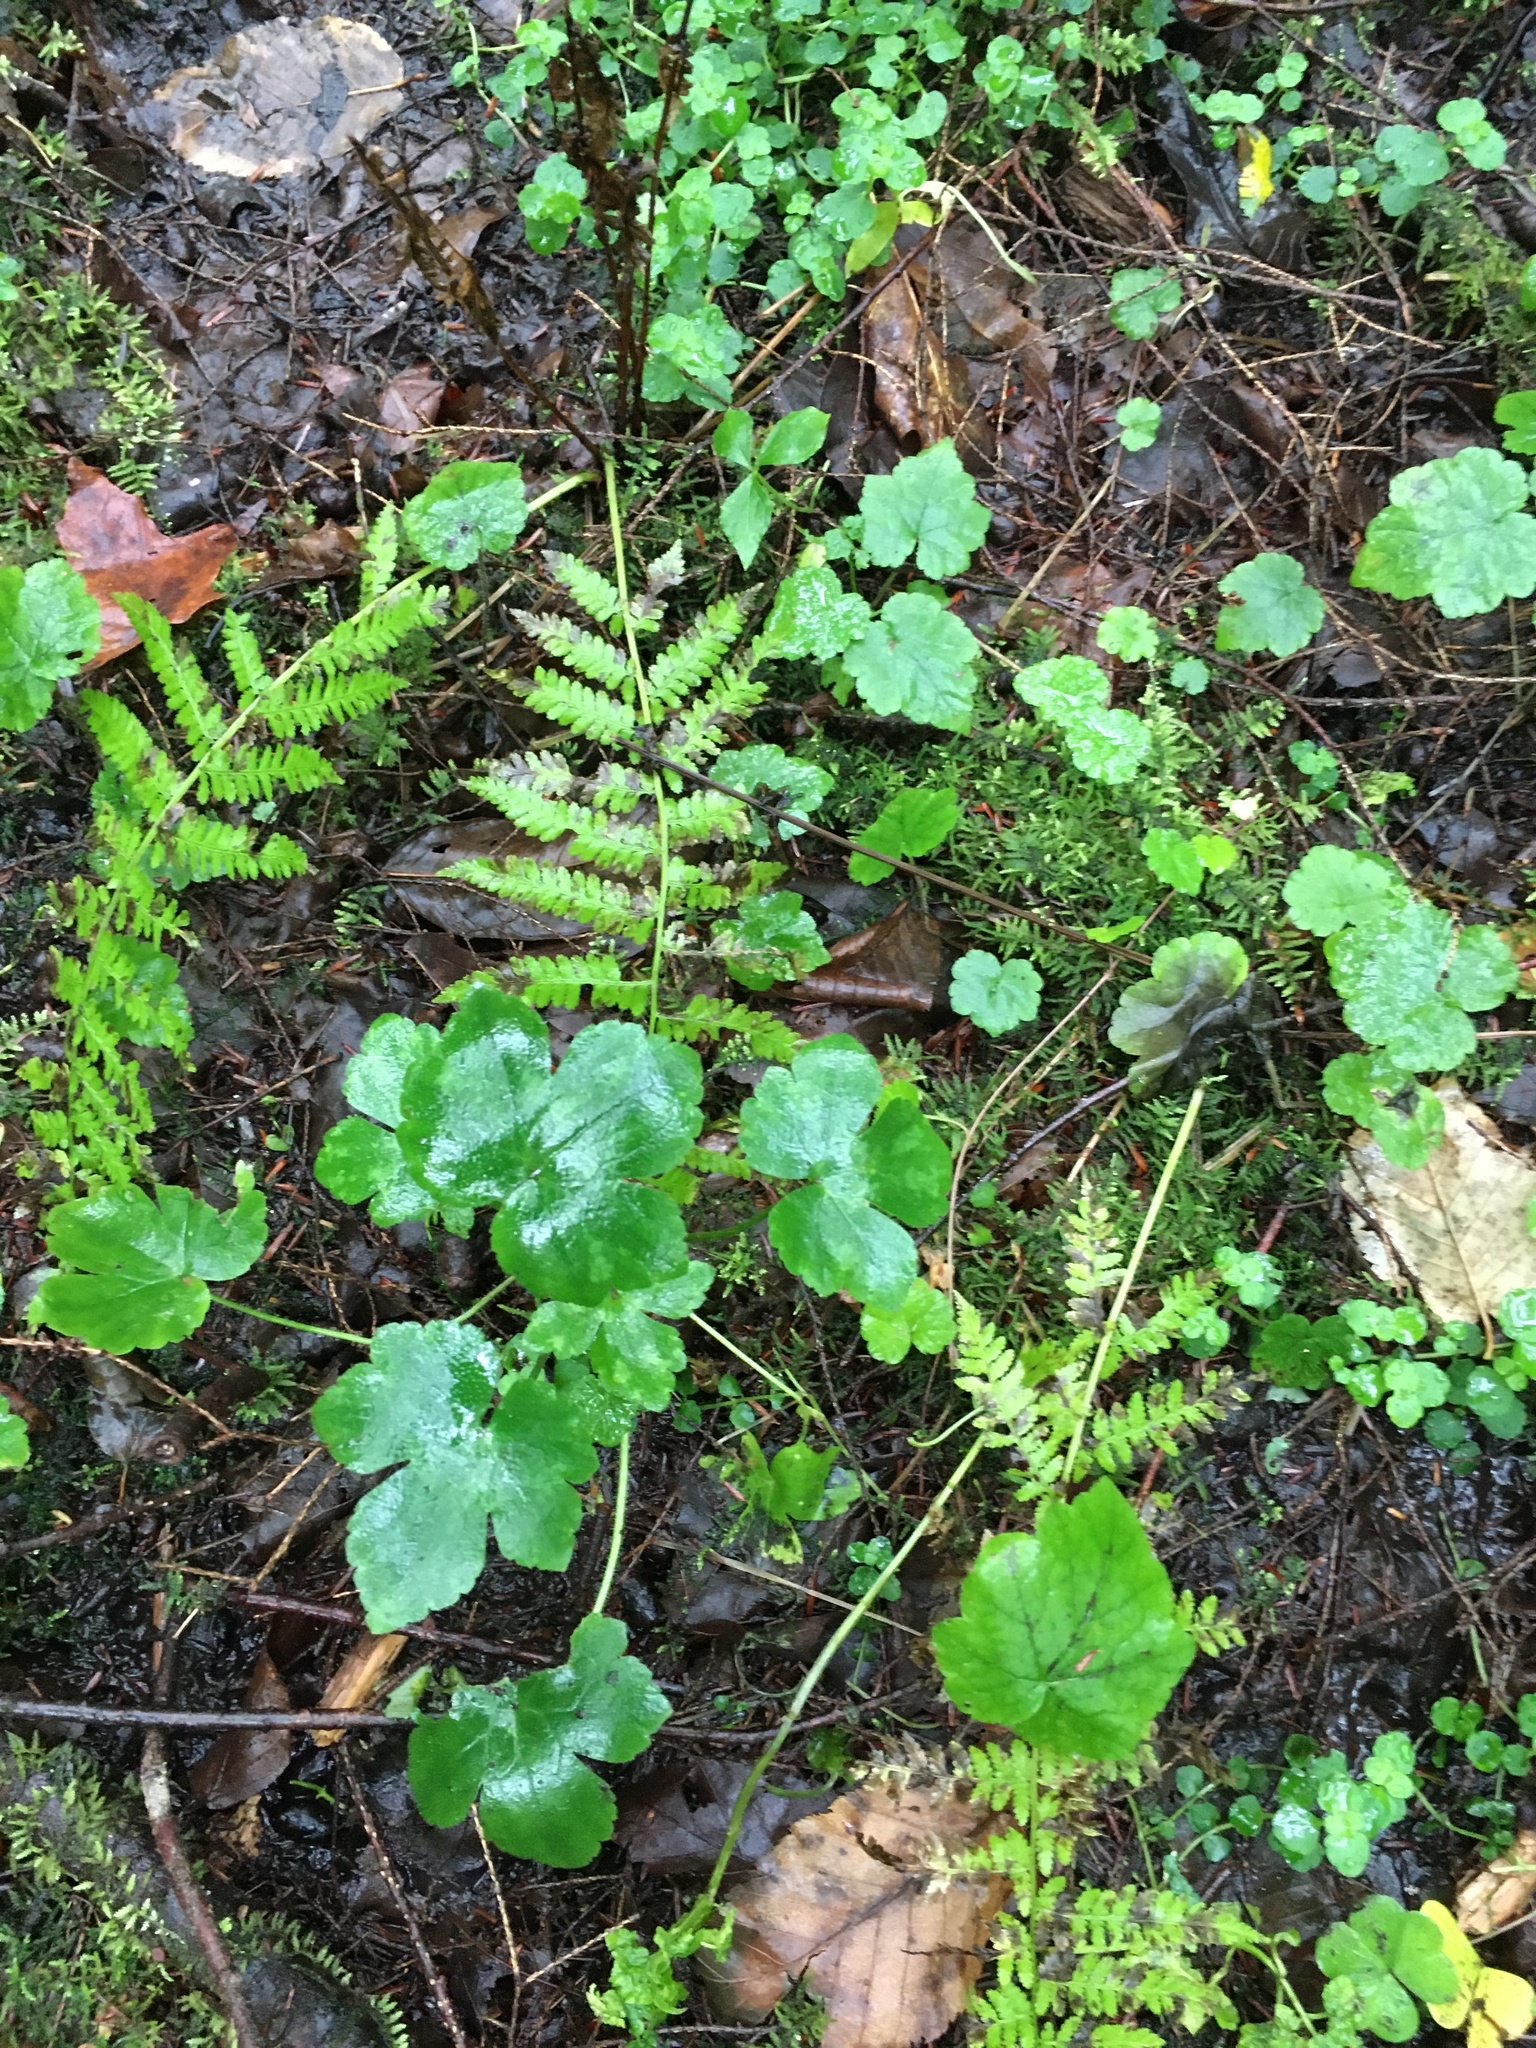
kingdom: Plantae
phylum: Tracheophyta
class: Magnoliopsida
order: Ranunculales
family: Ranunculaceae
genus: Ranunculus
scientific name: Ranunculus recurvatus
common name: Blisterwort
